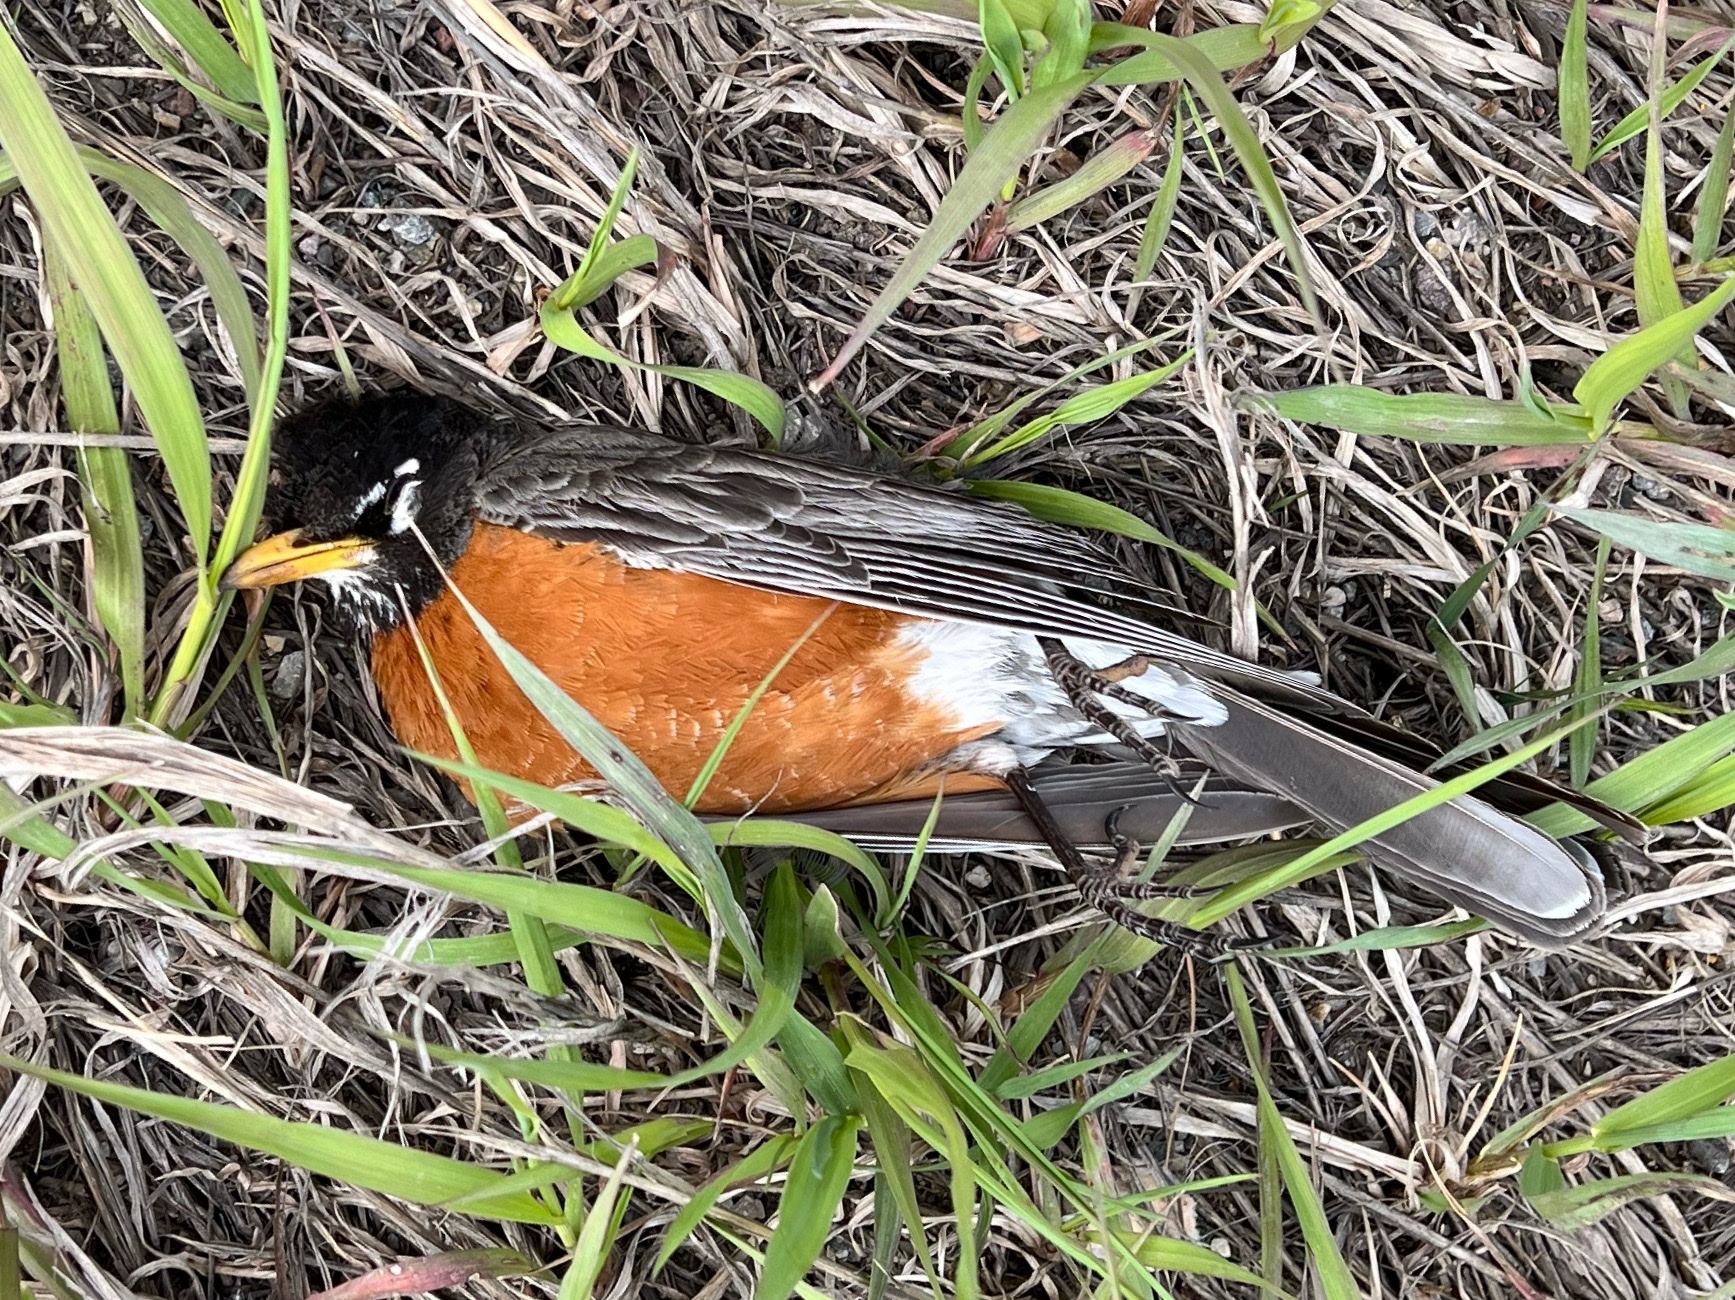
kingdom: Animalia
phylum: Chordata
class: Aves
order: Passeriformes
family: Turdidae
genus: Turdus
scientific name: Turdus migratorius
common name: American robin
